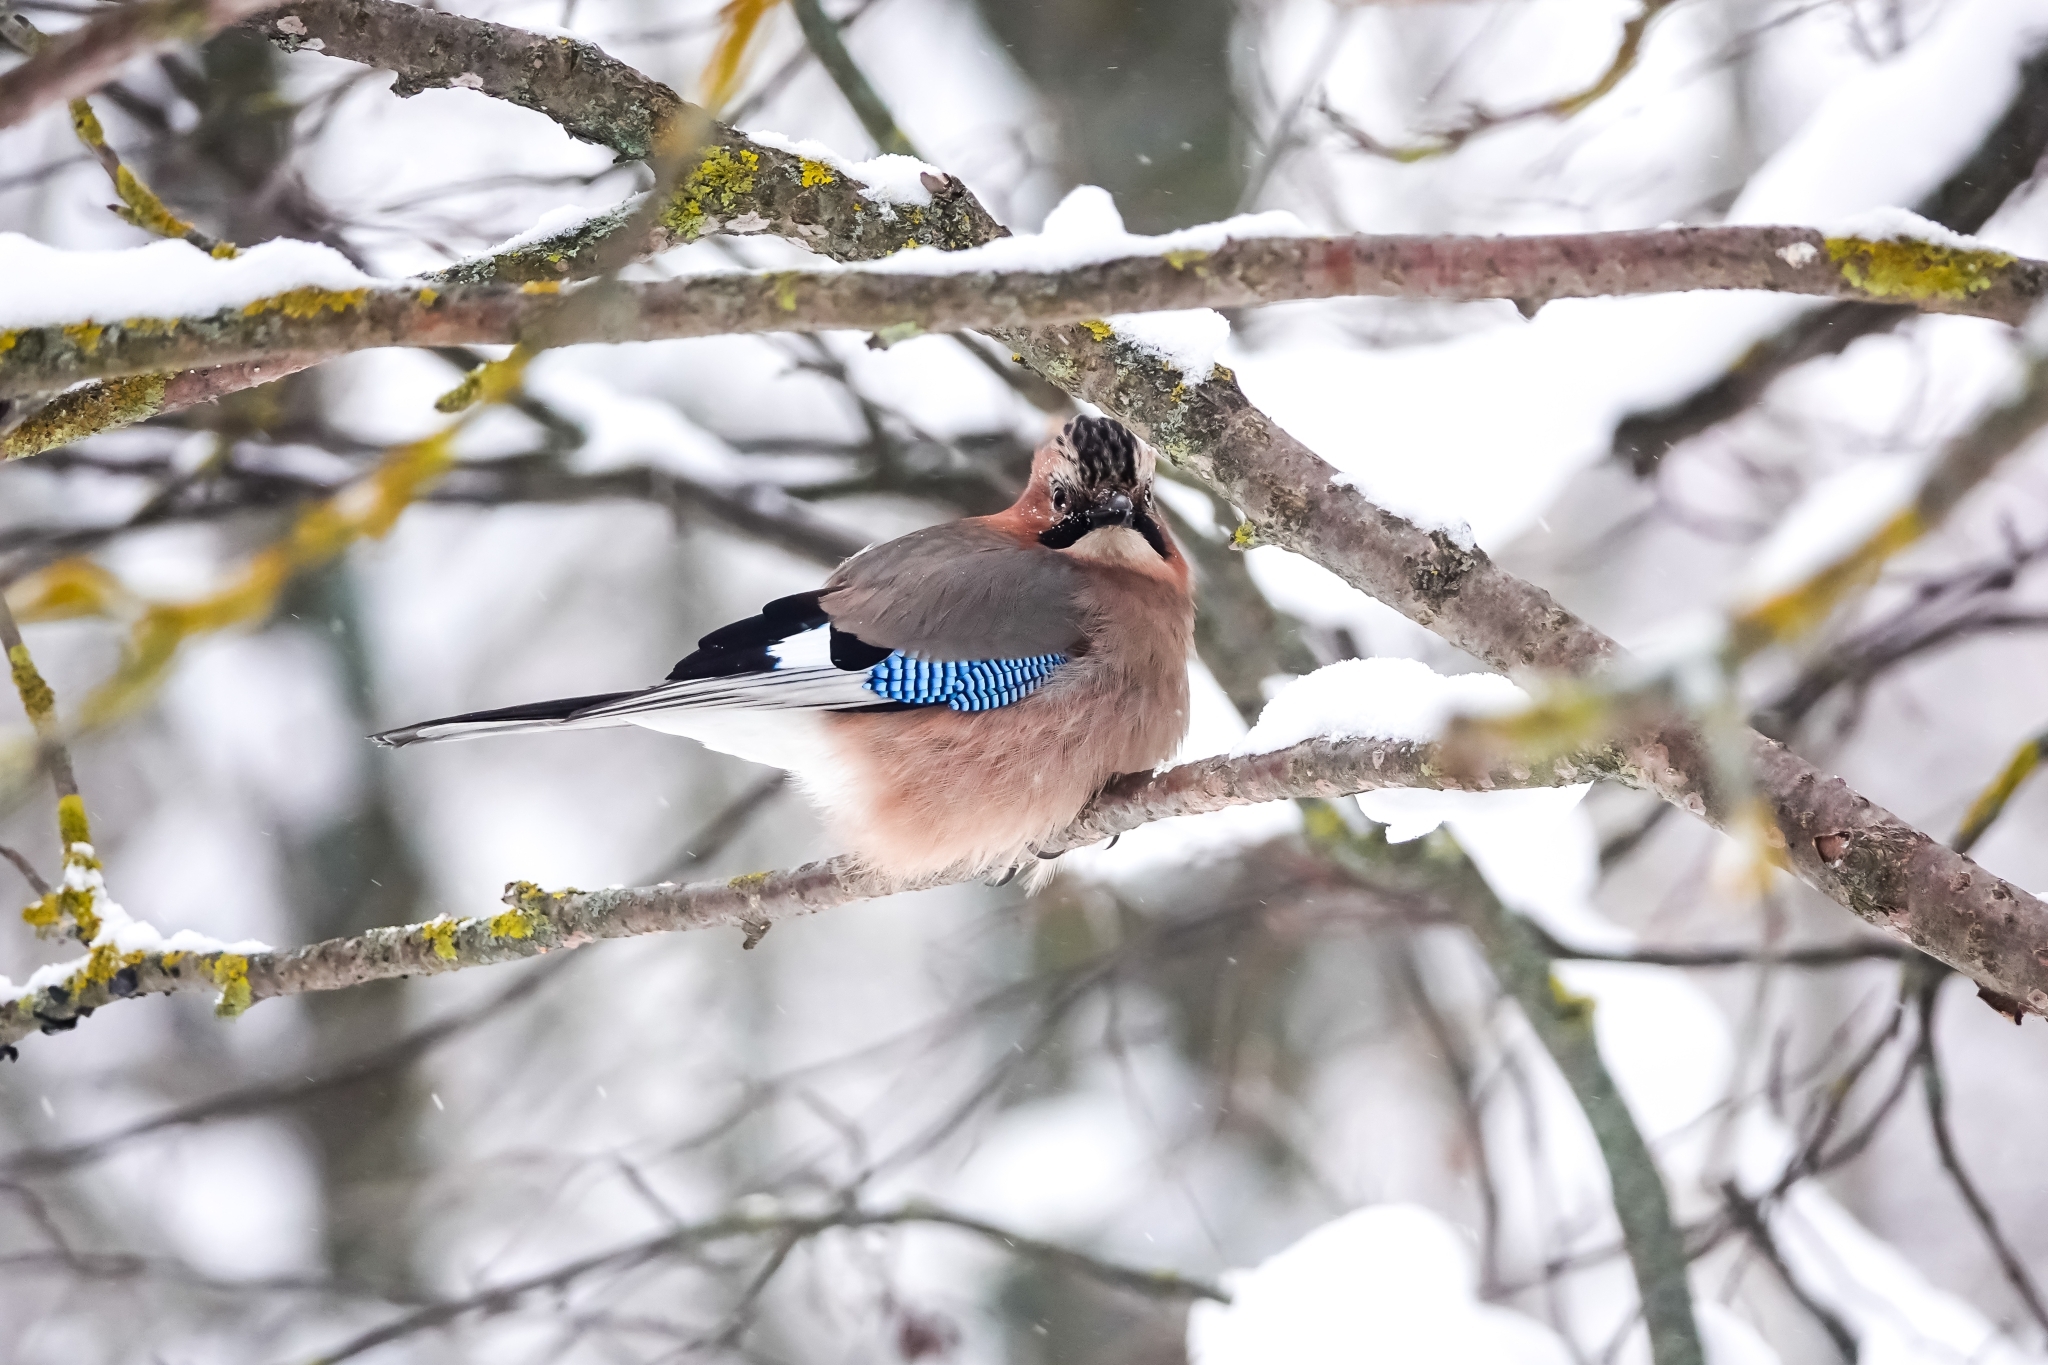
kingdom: Animalia
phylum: Chordata
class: Aves
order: Passeriformes
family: Corvidae
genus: Garrulus
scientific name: Garrulus glandarius
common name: Eurasian jay
